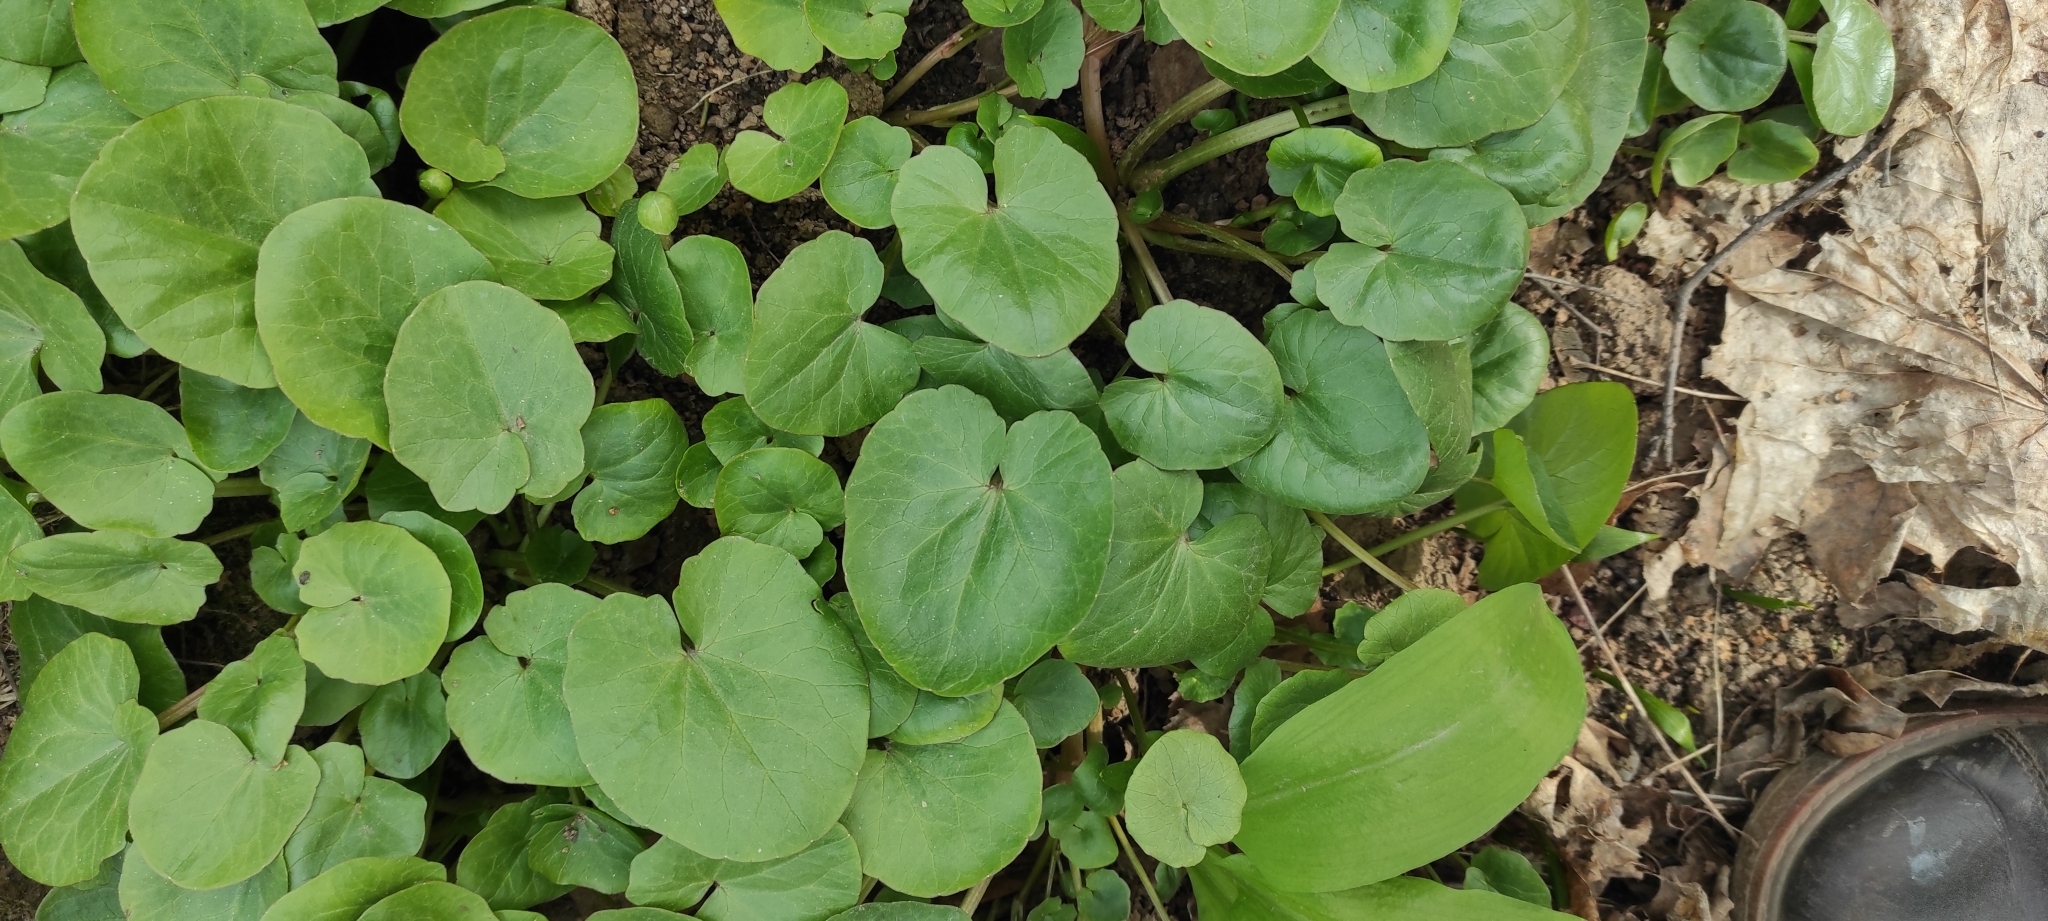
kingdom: Plantae
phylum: Tracheophyta
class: Magnoliopsida
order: Ranunculales
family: Ranunculaceae
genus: Ficaria
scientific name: Ficaria verna
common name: Lesser celandine
